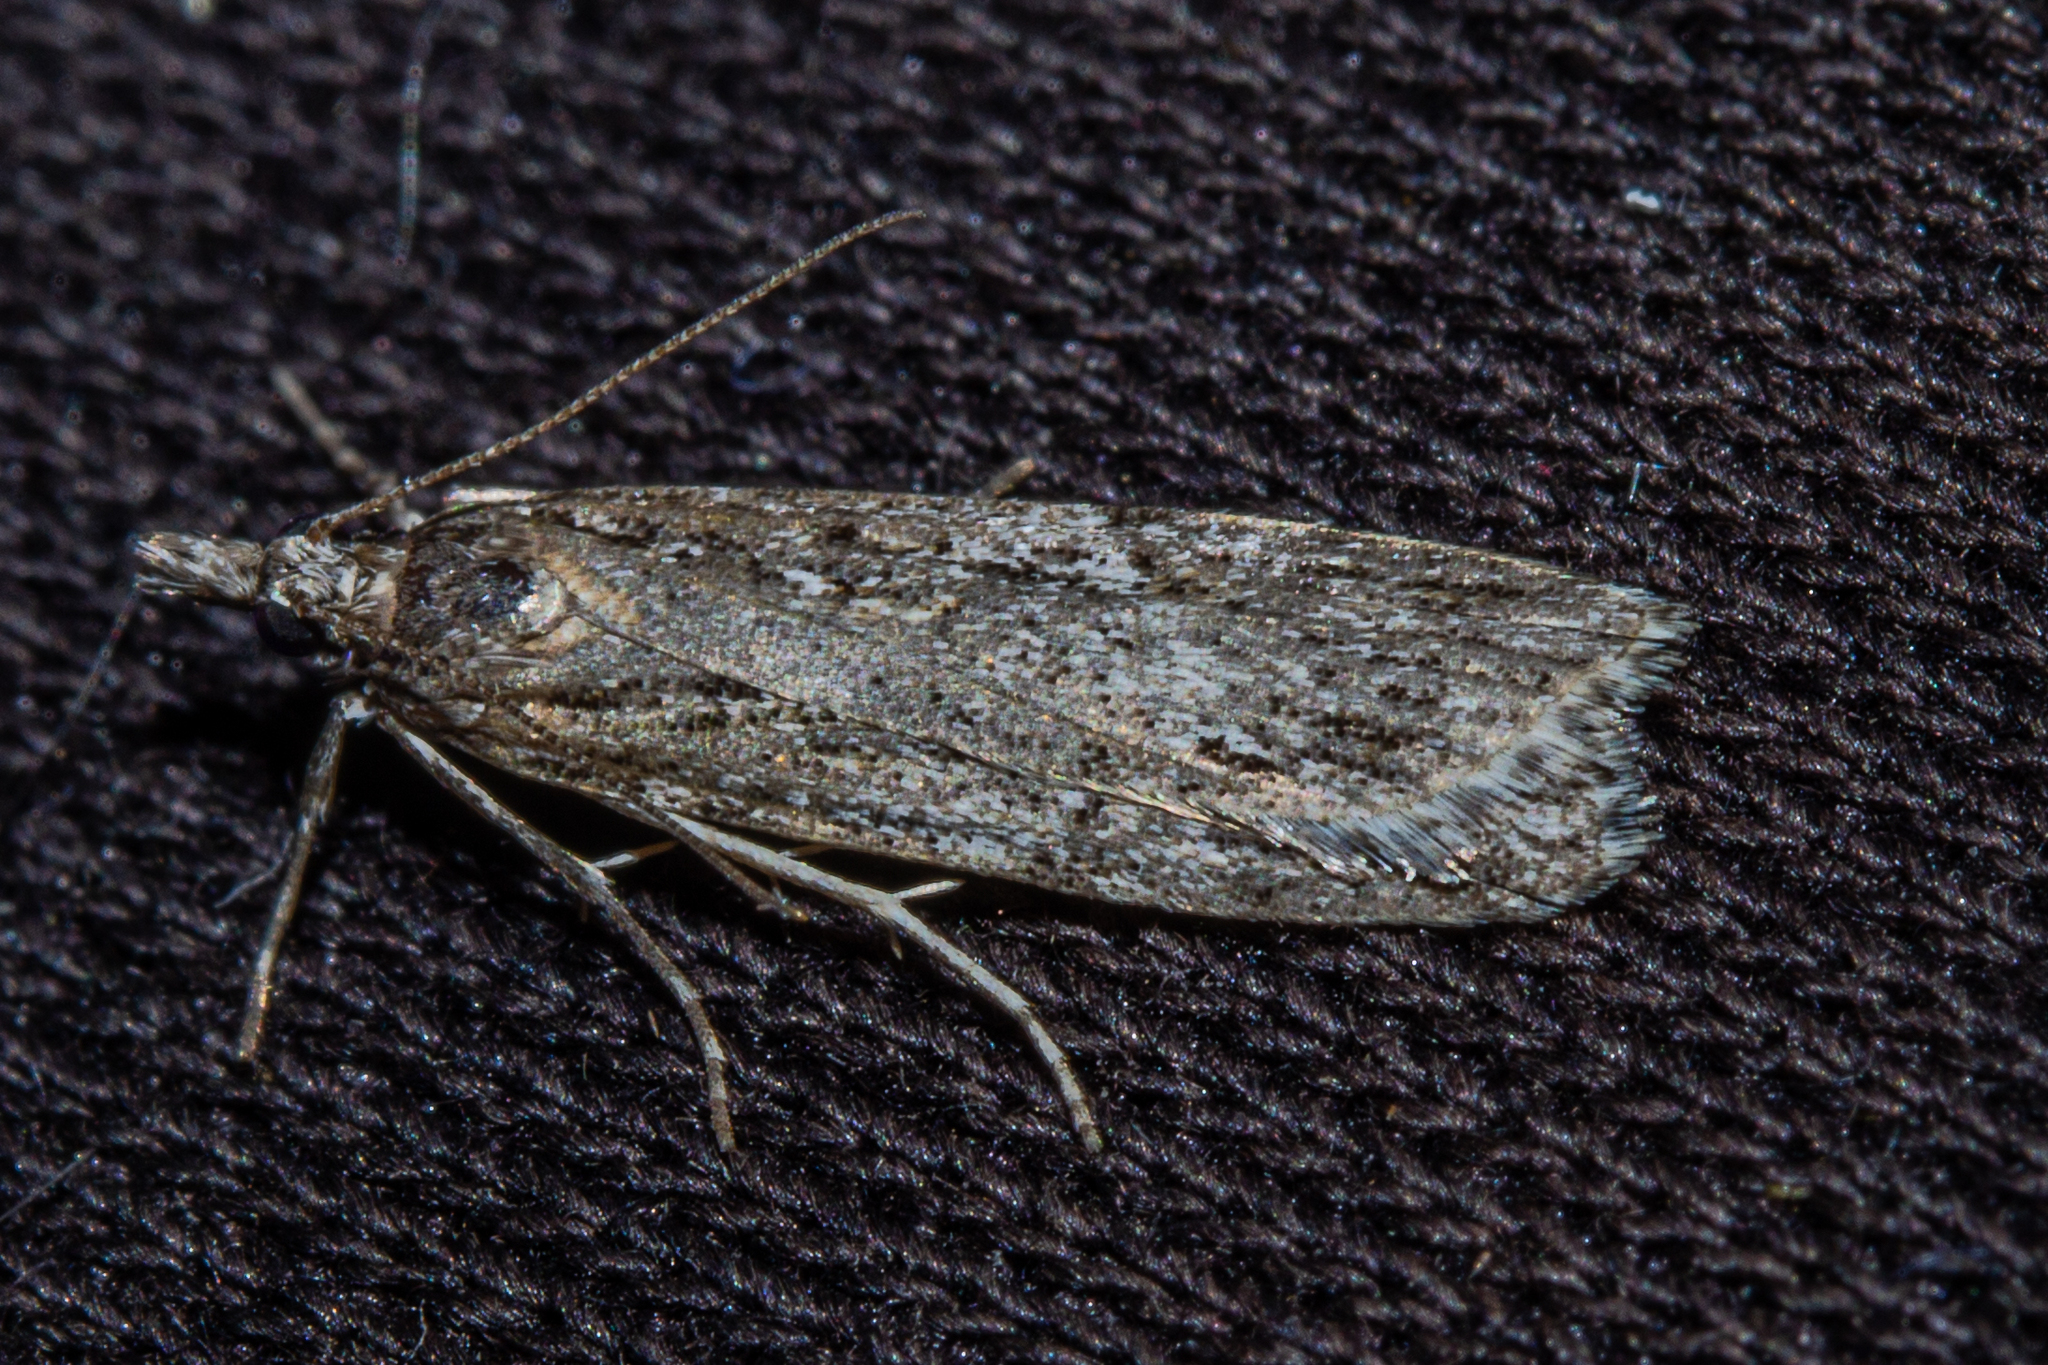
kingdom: Animalia
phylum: Arthropoda
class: Insecta
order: Lepidoptera
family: Crambidae
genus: Scoparia
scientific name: Scoparia chalicodes
